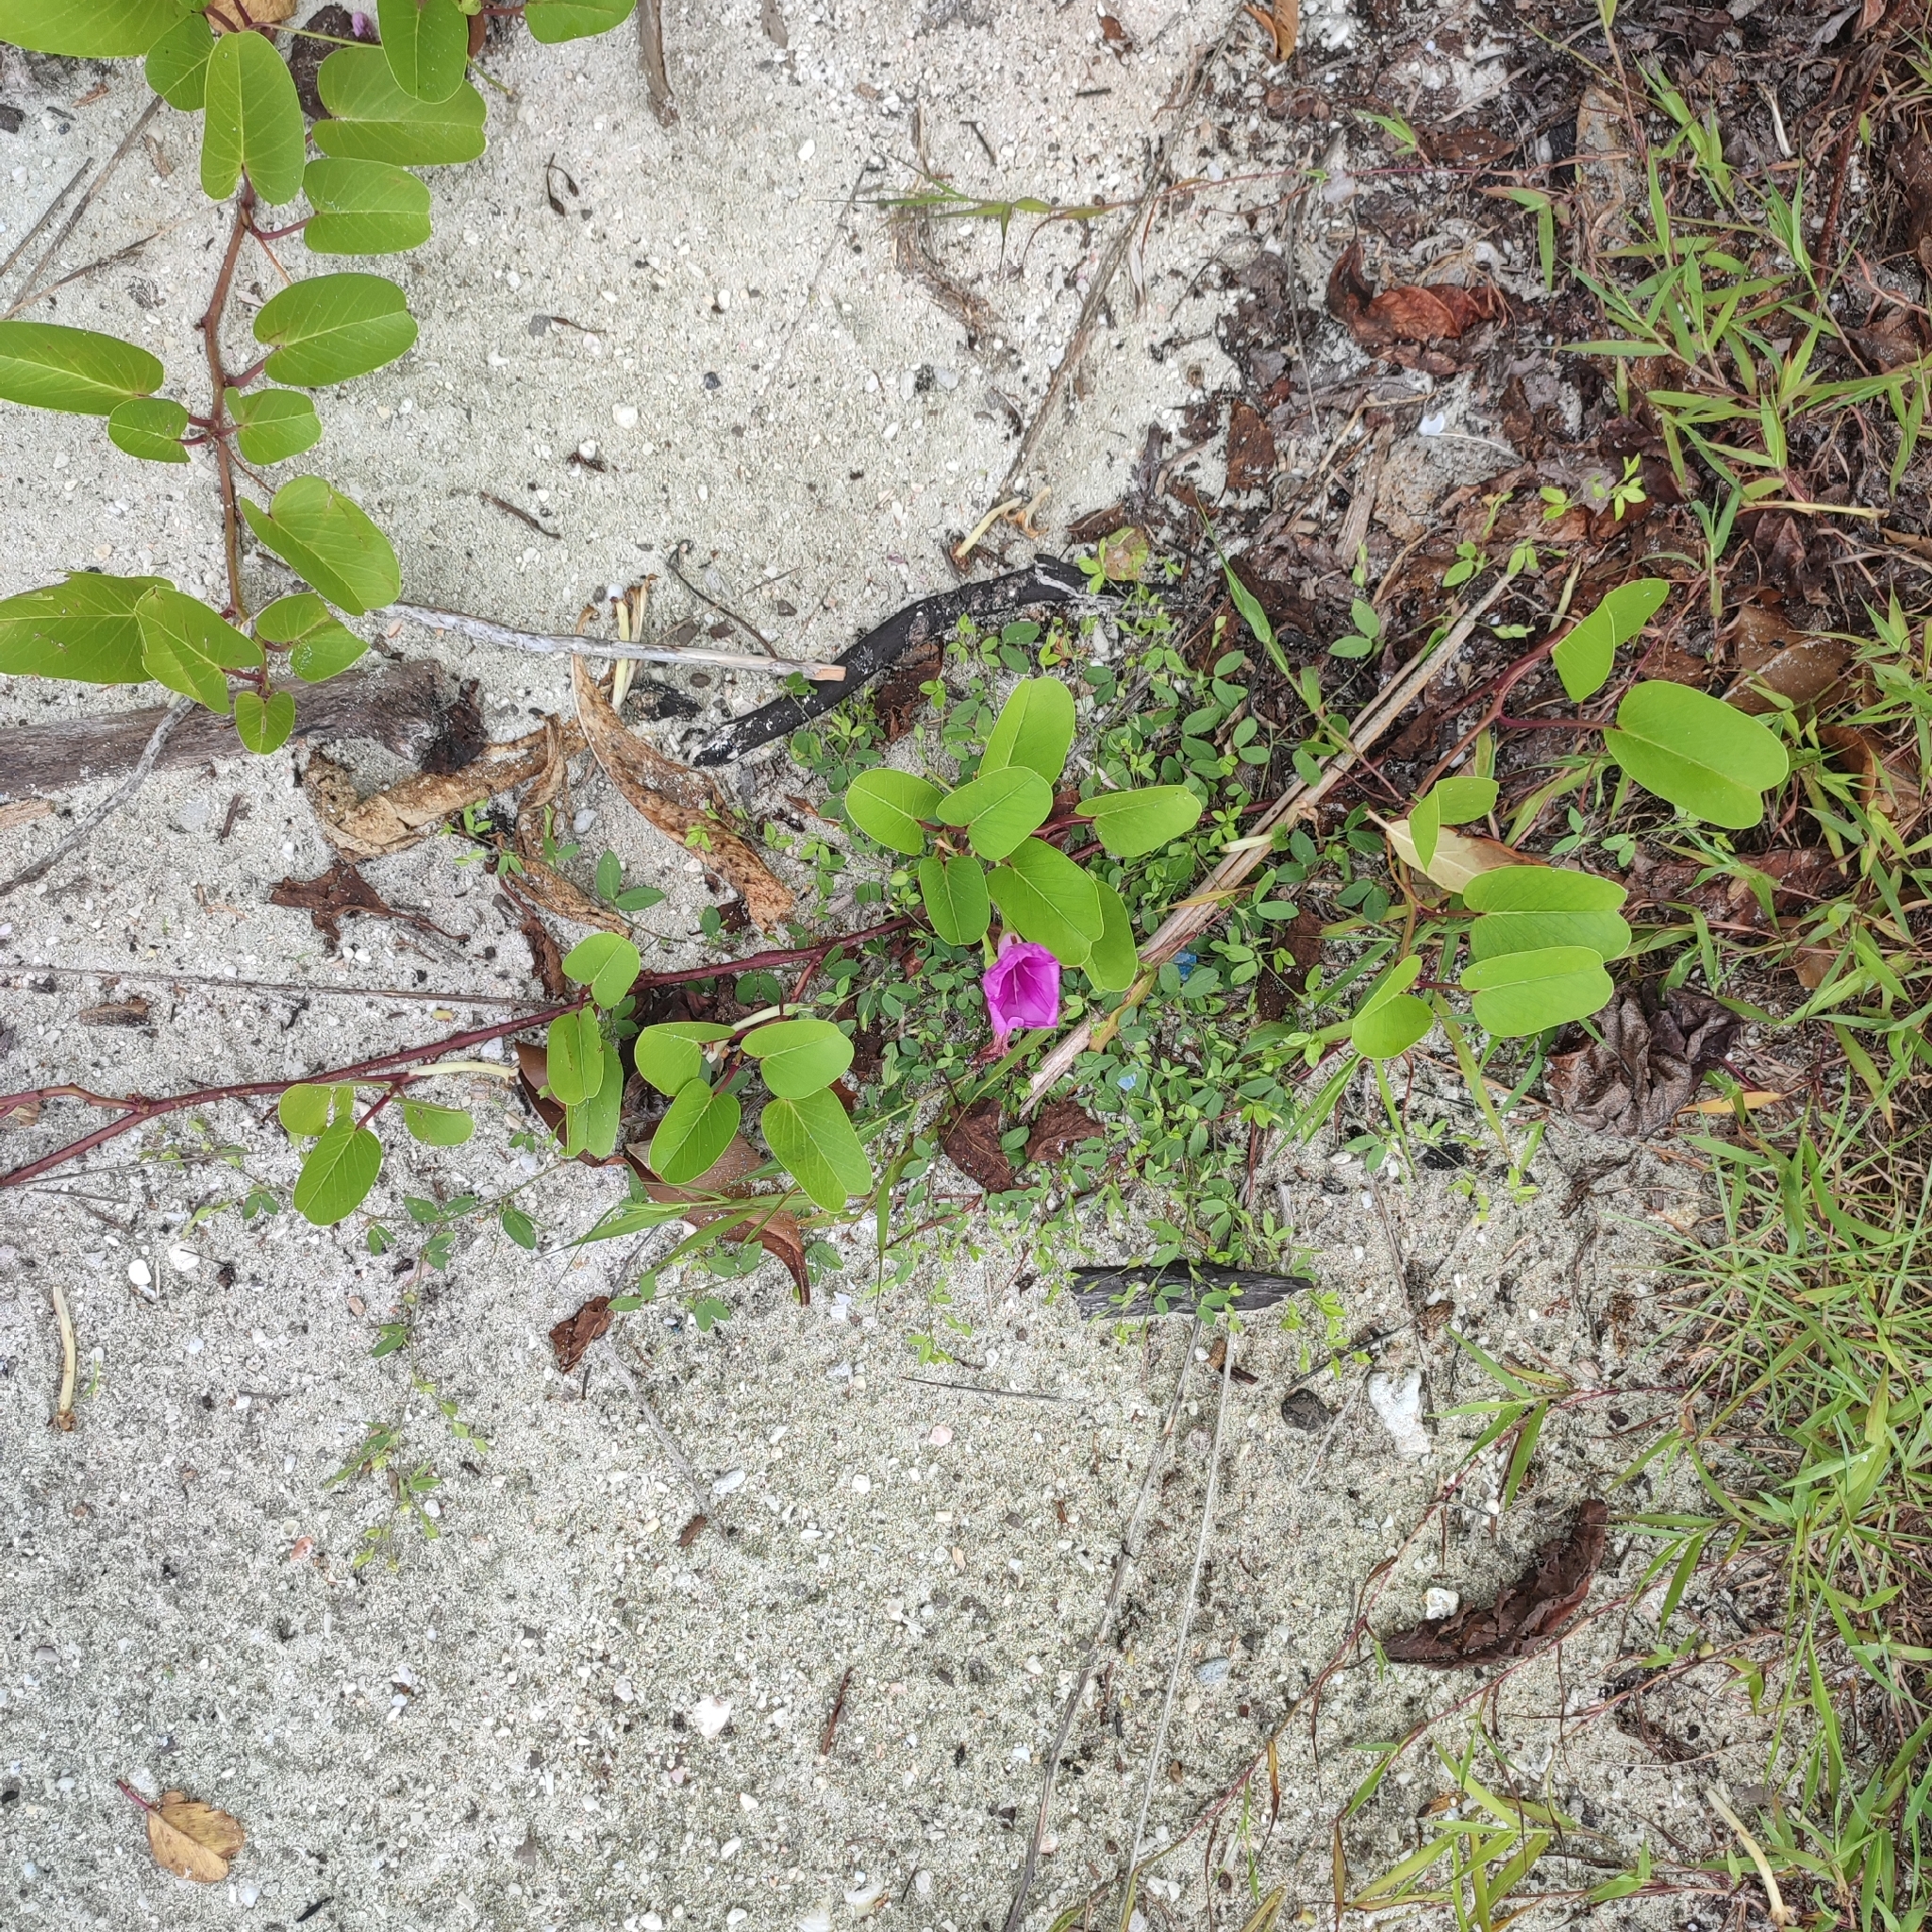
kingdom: Plantae
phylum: Tracheophyta
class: Magnoliopsida
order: Solanales
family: Convolvulaceae
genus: Ipomoea
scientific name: Ipomoea pes-caprae
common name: Beach morning glory
